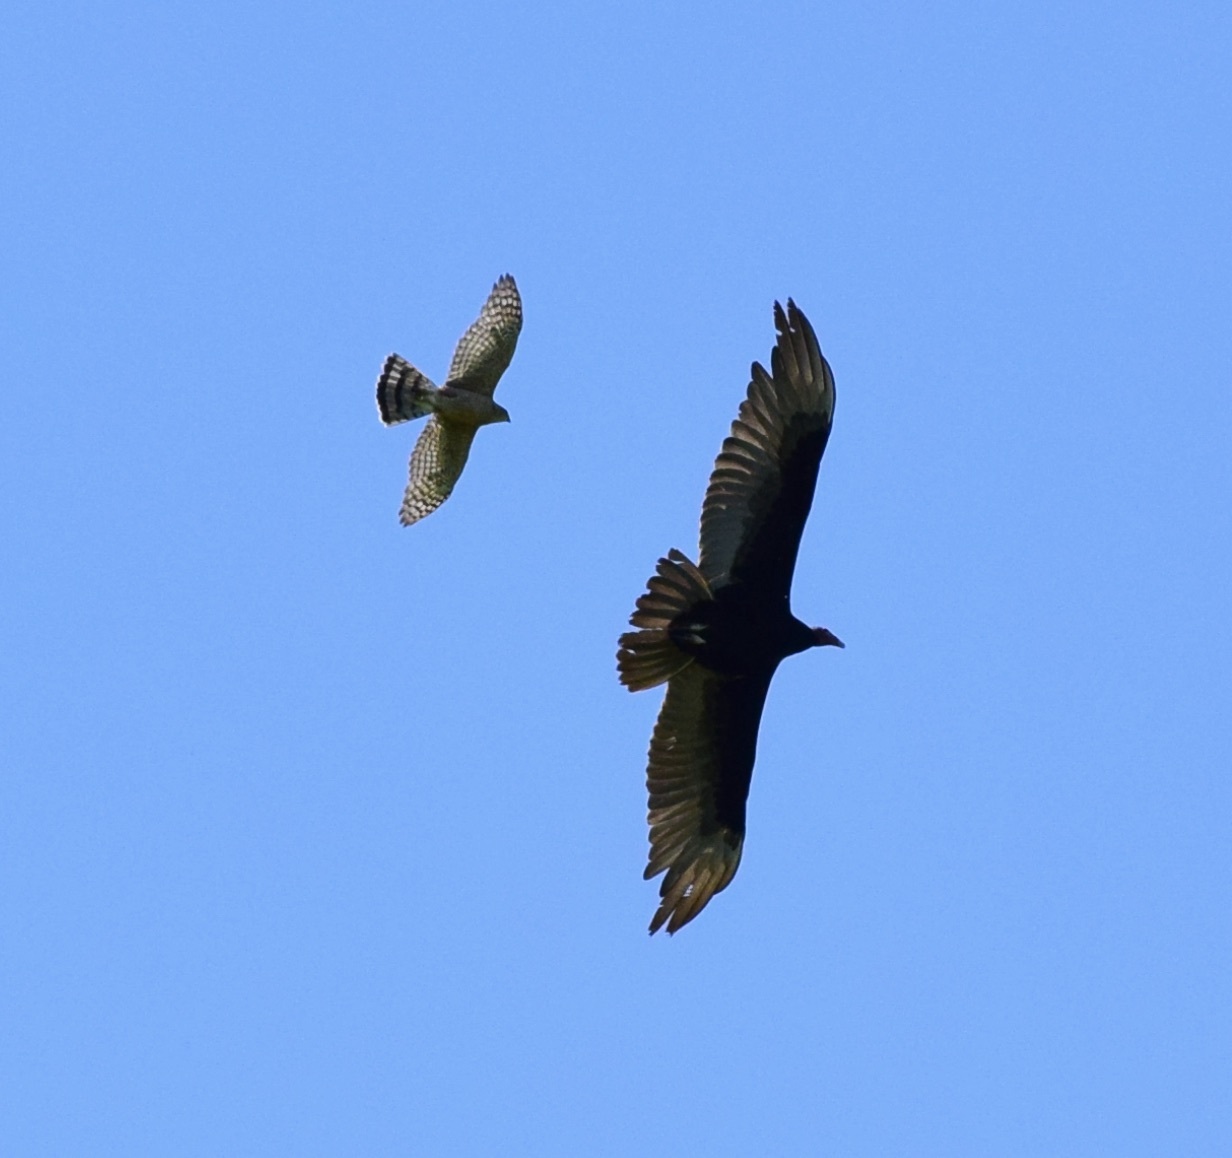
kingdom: Animalia
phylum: Chordata
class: Aves
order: Accipitriformes
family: Accipitridae
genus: Accipiter
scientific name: Accipiter cooperii
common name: Cooper's hawk
